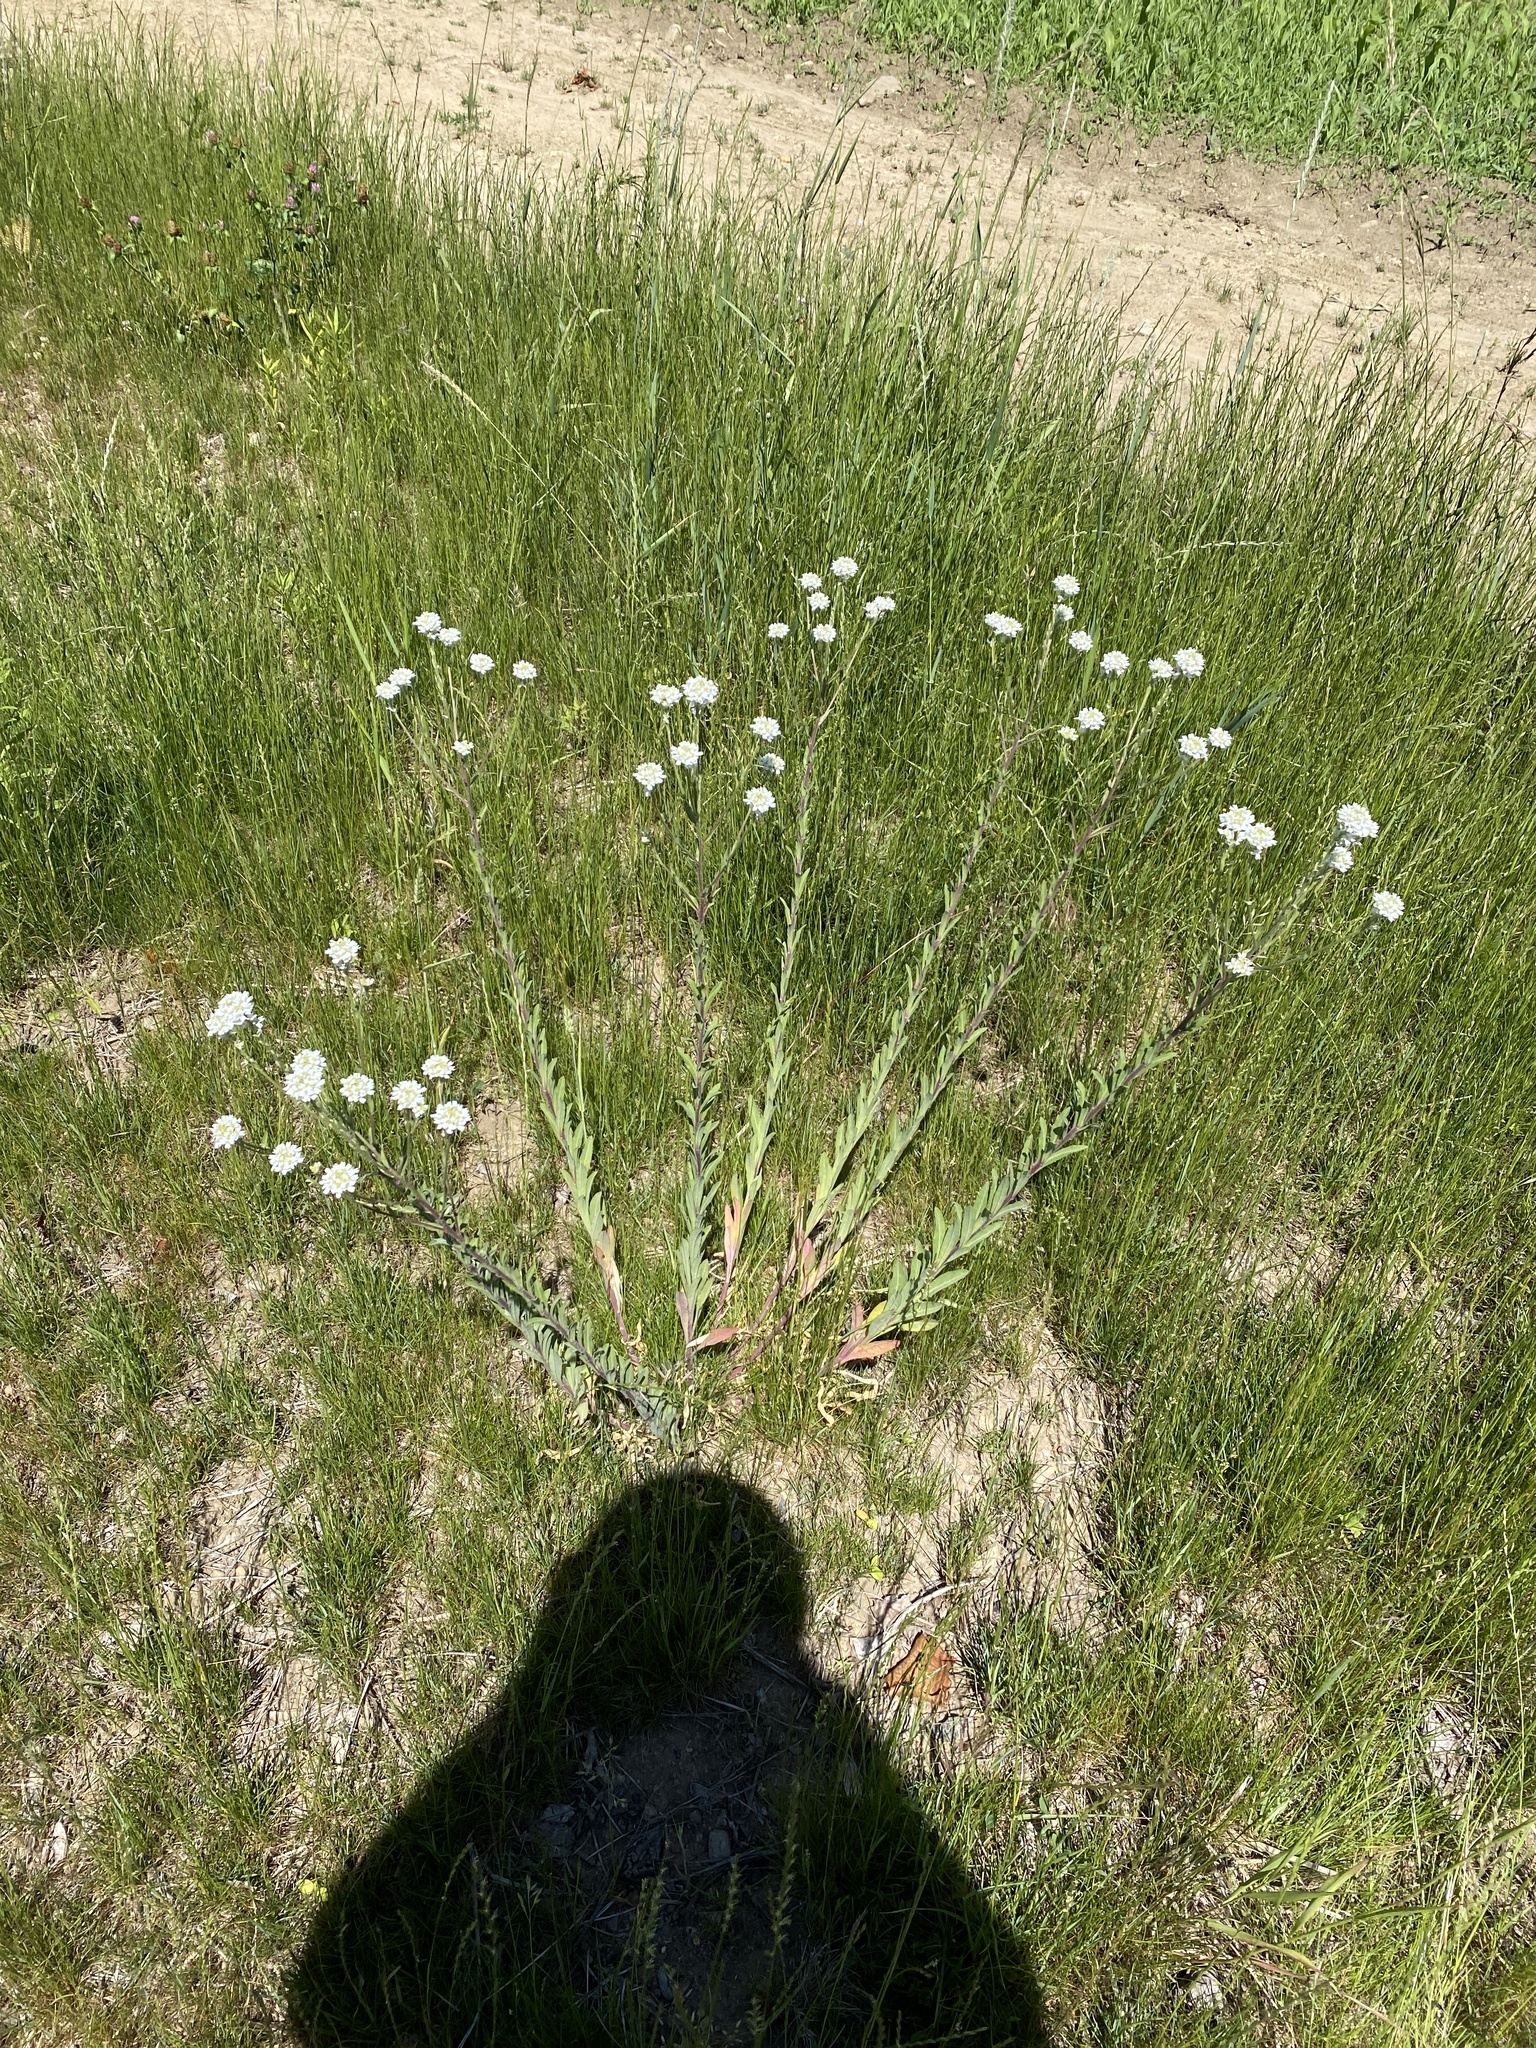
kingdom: Plantae
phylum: Tracheophyta
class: Magnoliopsida
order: Brassicales
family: Brassicaceae
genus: Berteroa
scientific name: Berteroa incana
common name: Hoary alison
